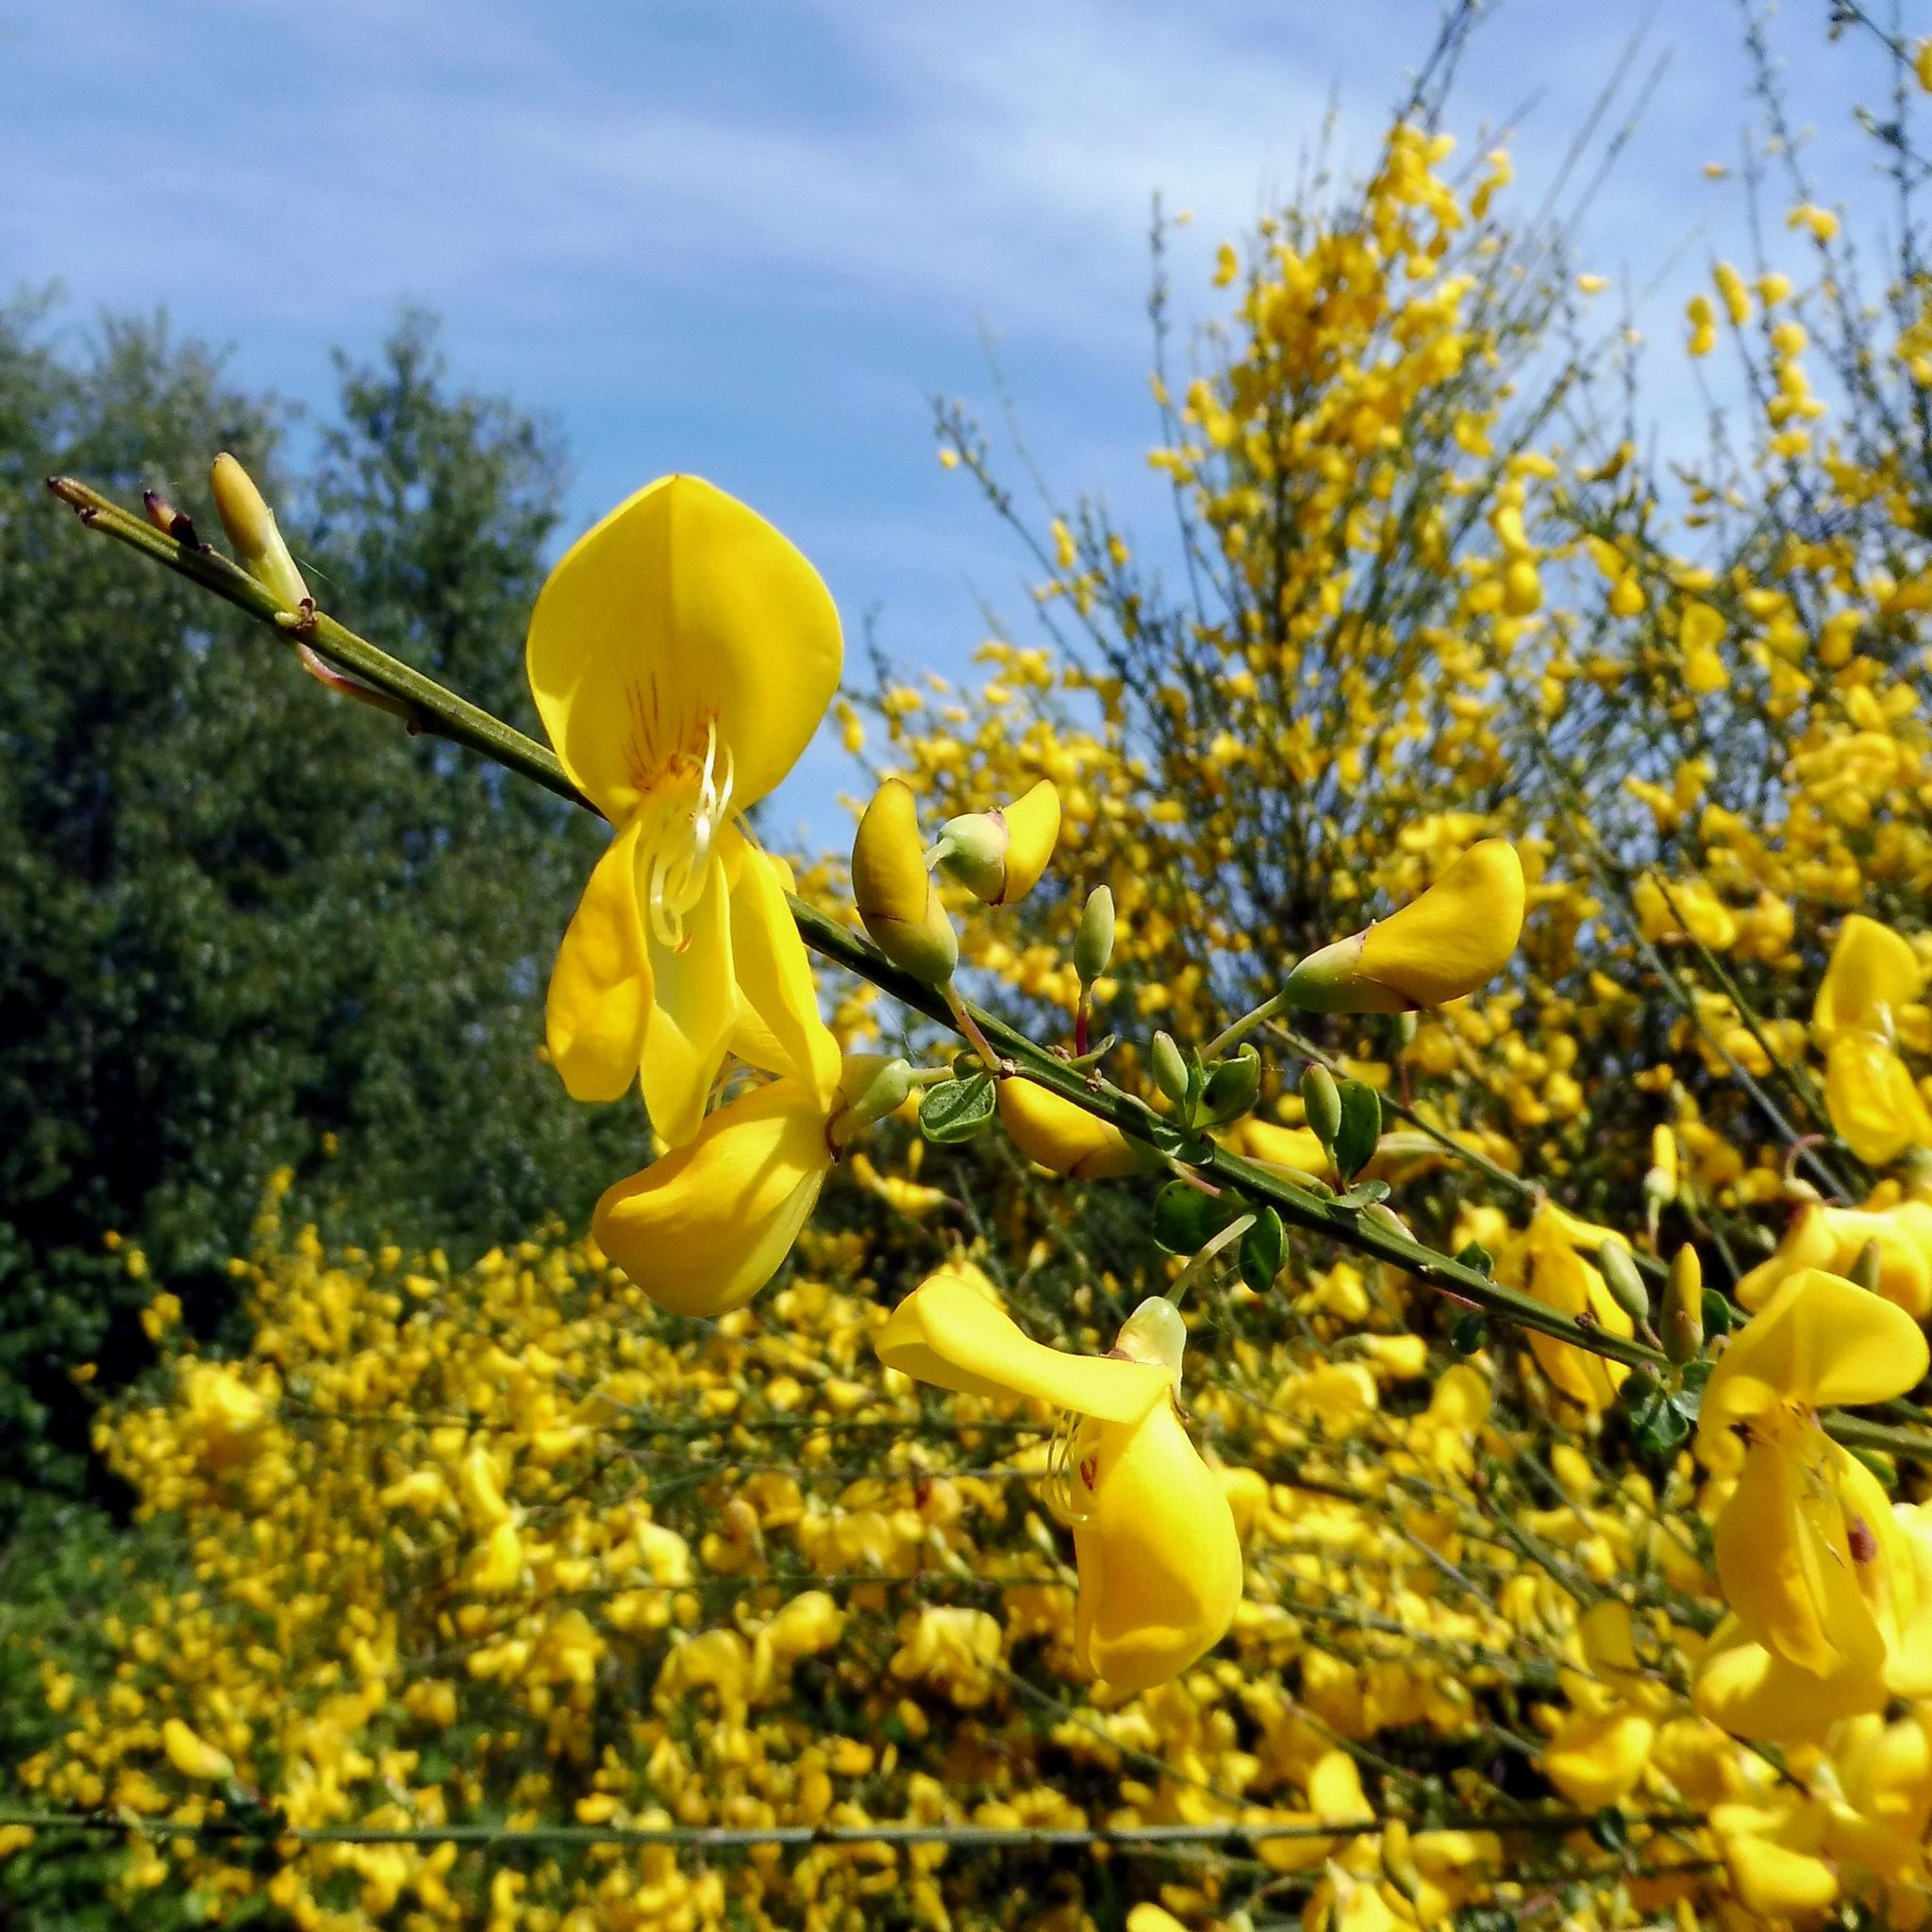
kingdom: Plantae
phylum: Tracheophyta
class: Magnoliopsida
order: Fabales
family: Fabaceae
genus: Cytisus
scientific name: Cytisus scoparius
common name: Scotch broom
